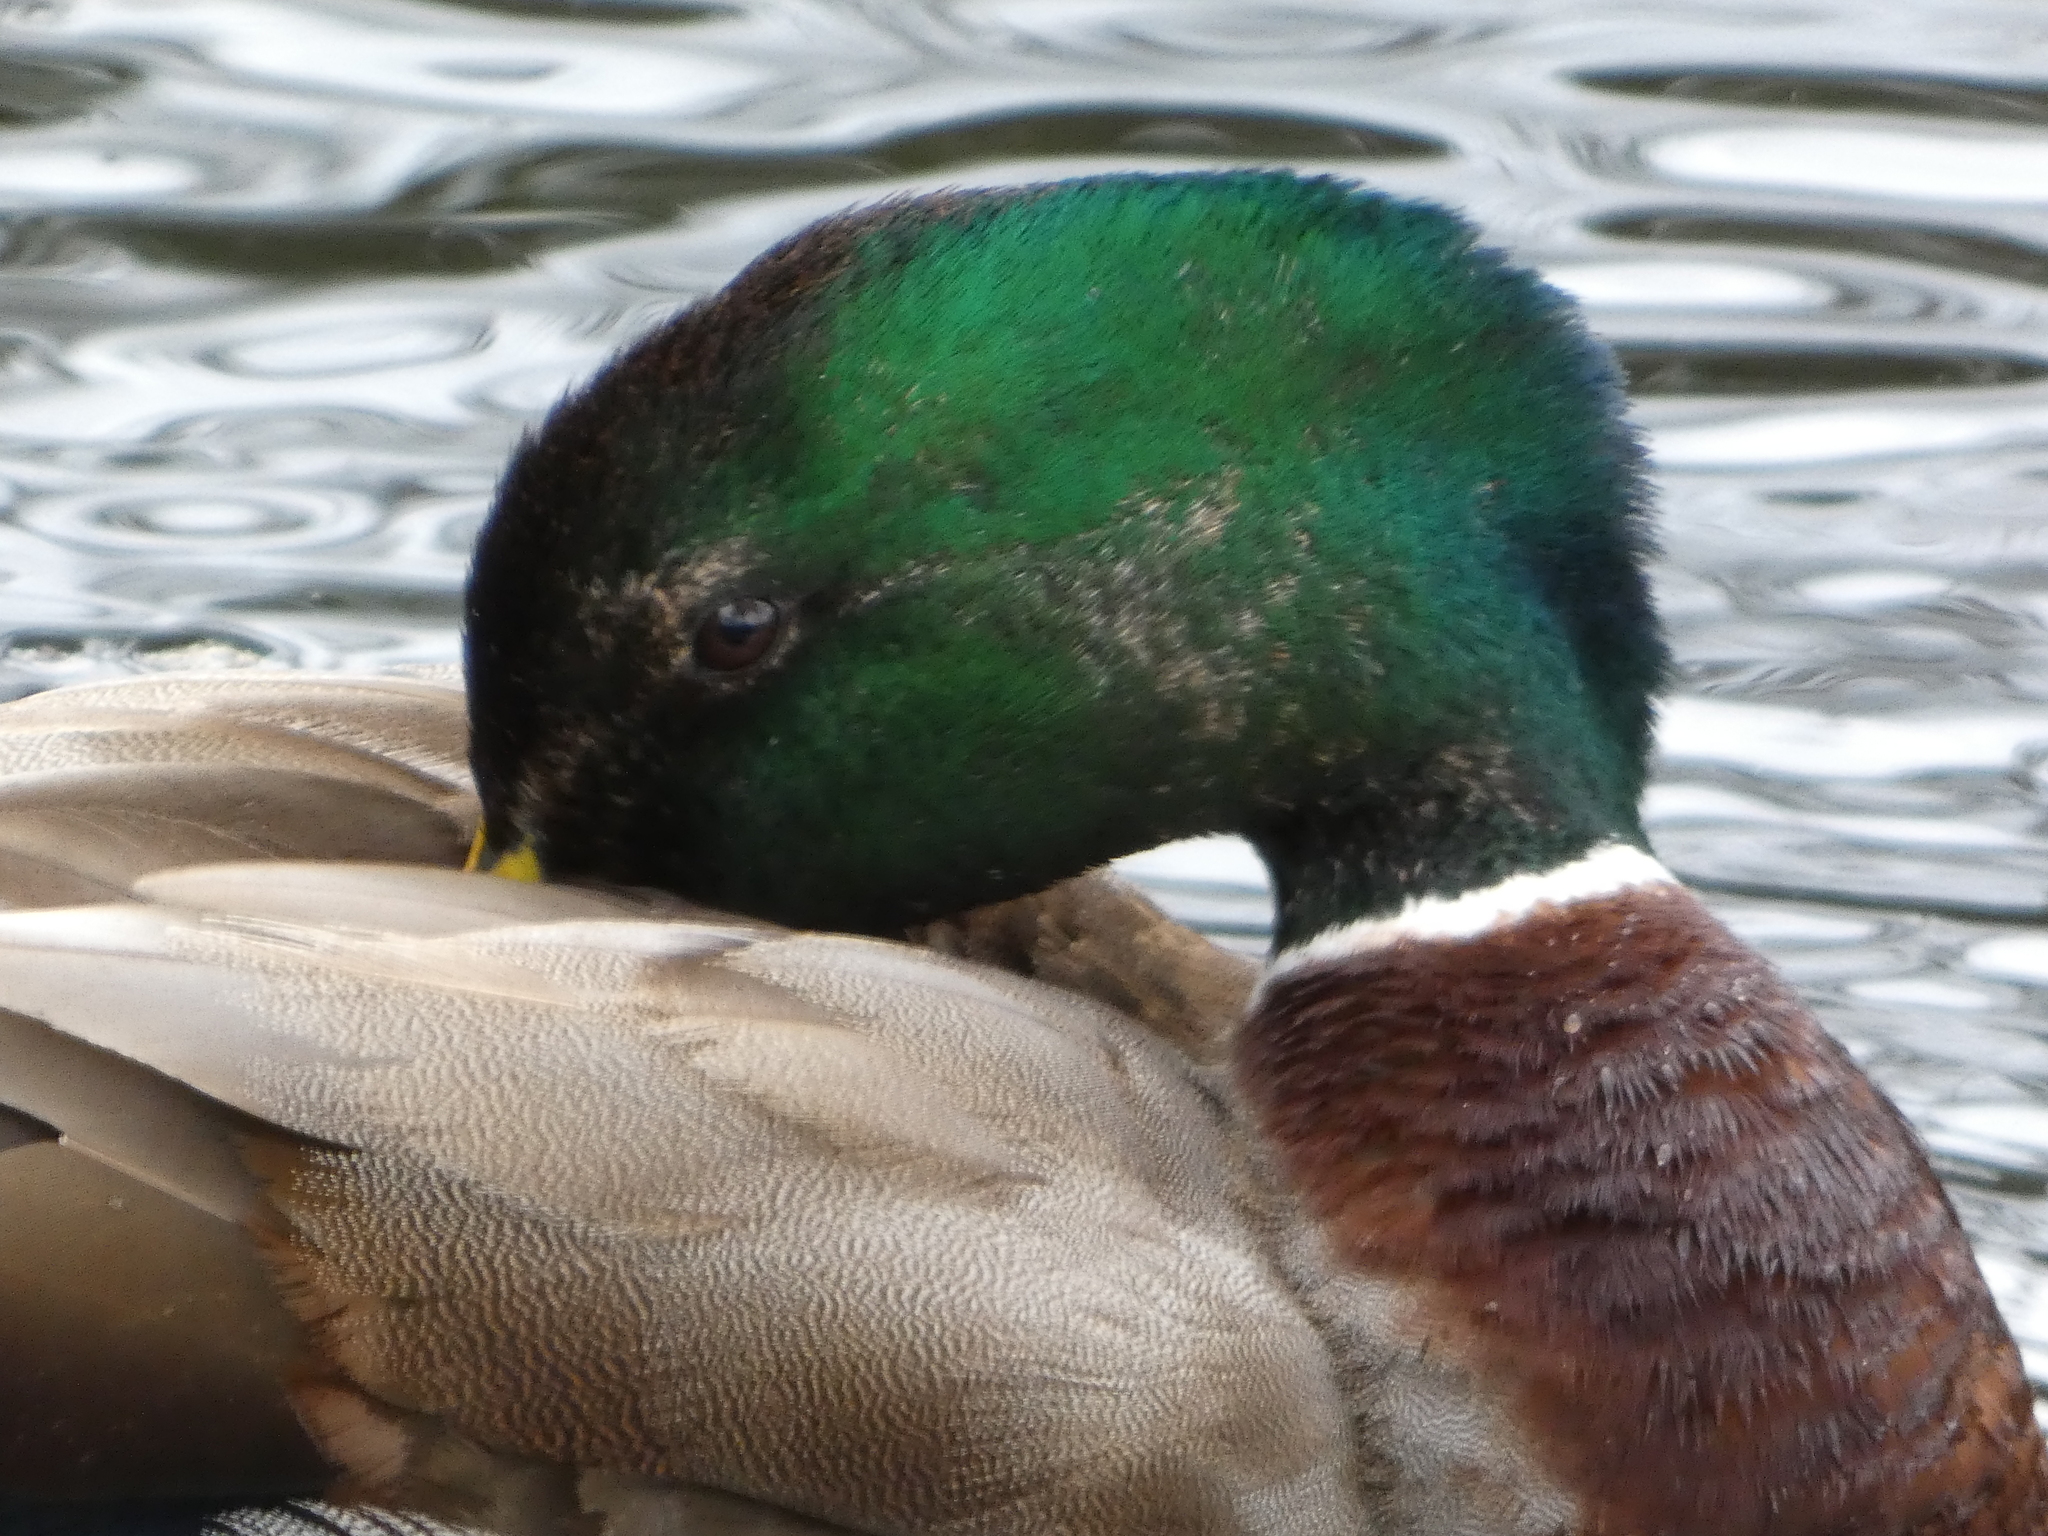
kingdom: Animalia
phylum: Chordata
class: Aves
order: Anseriformes
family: Anatidae
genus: Anas
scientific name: Anas platyrhynchos
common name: Mallard
